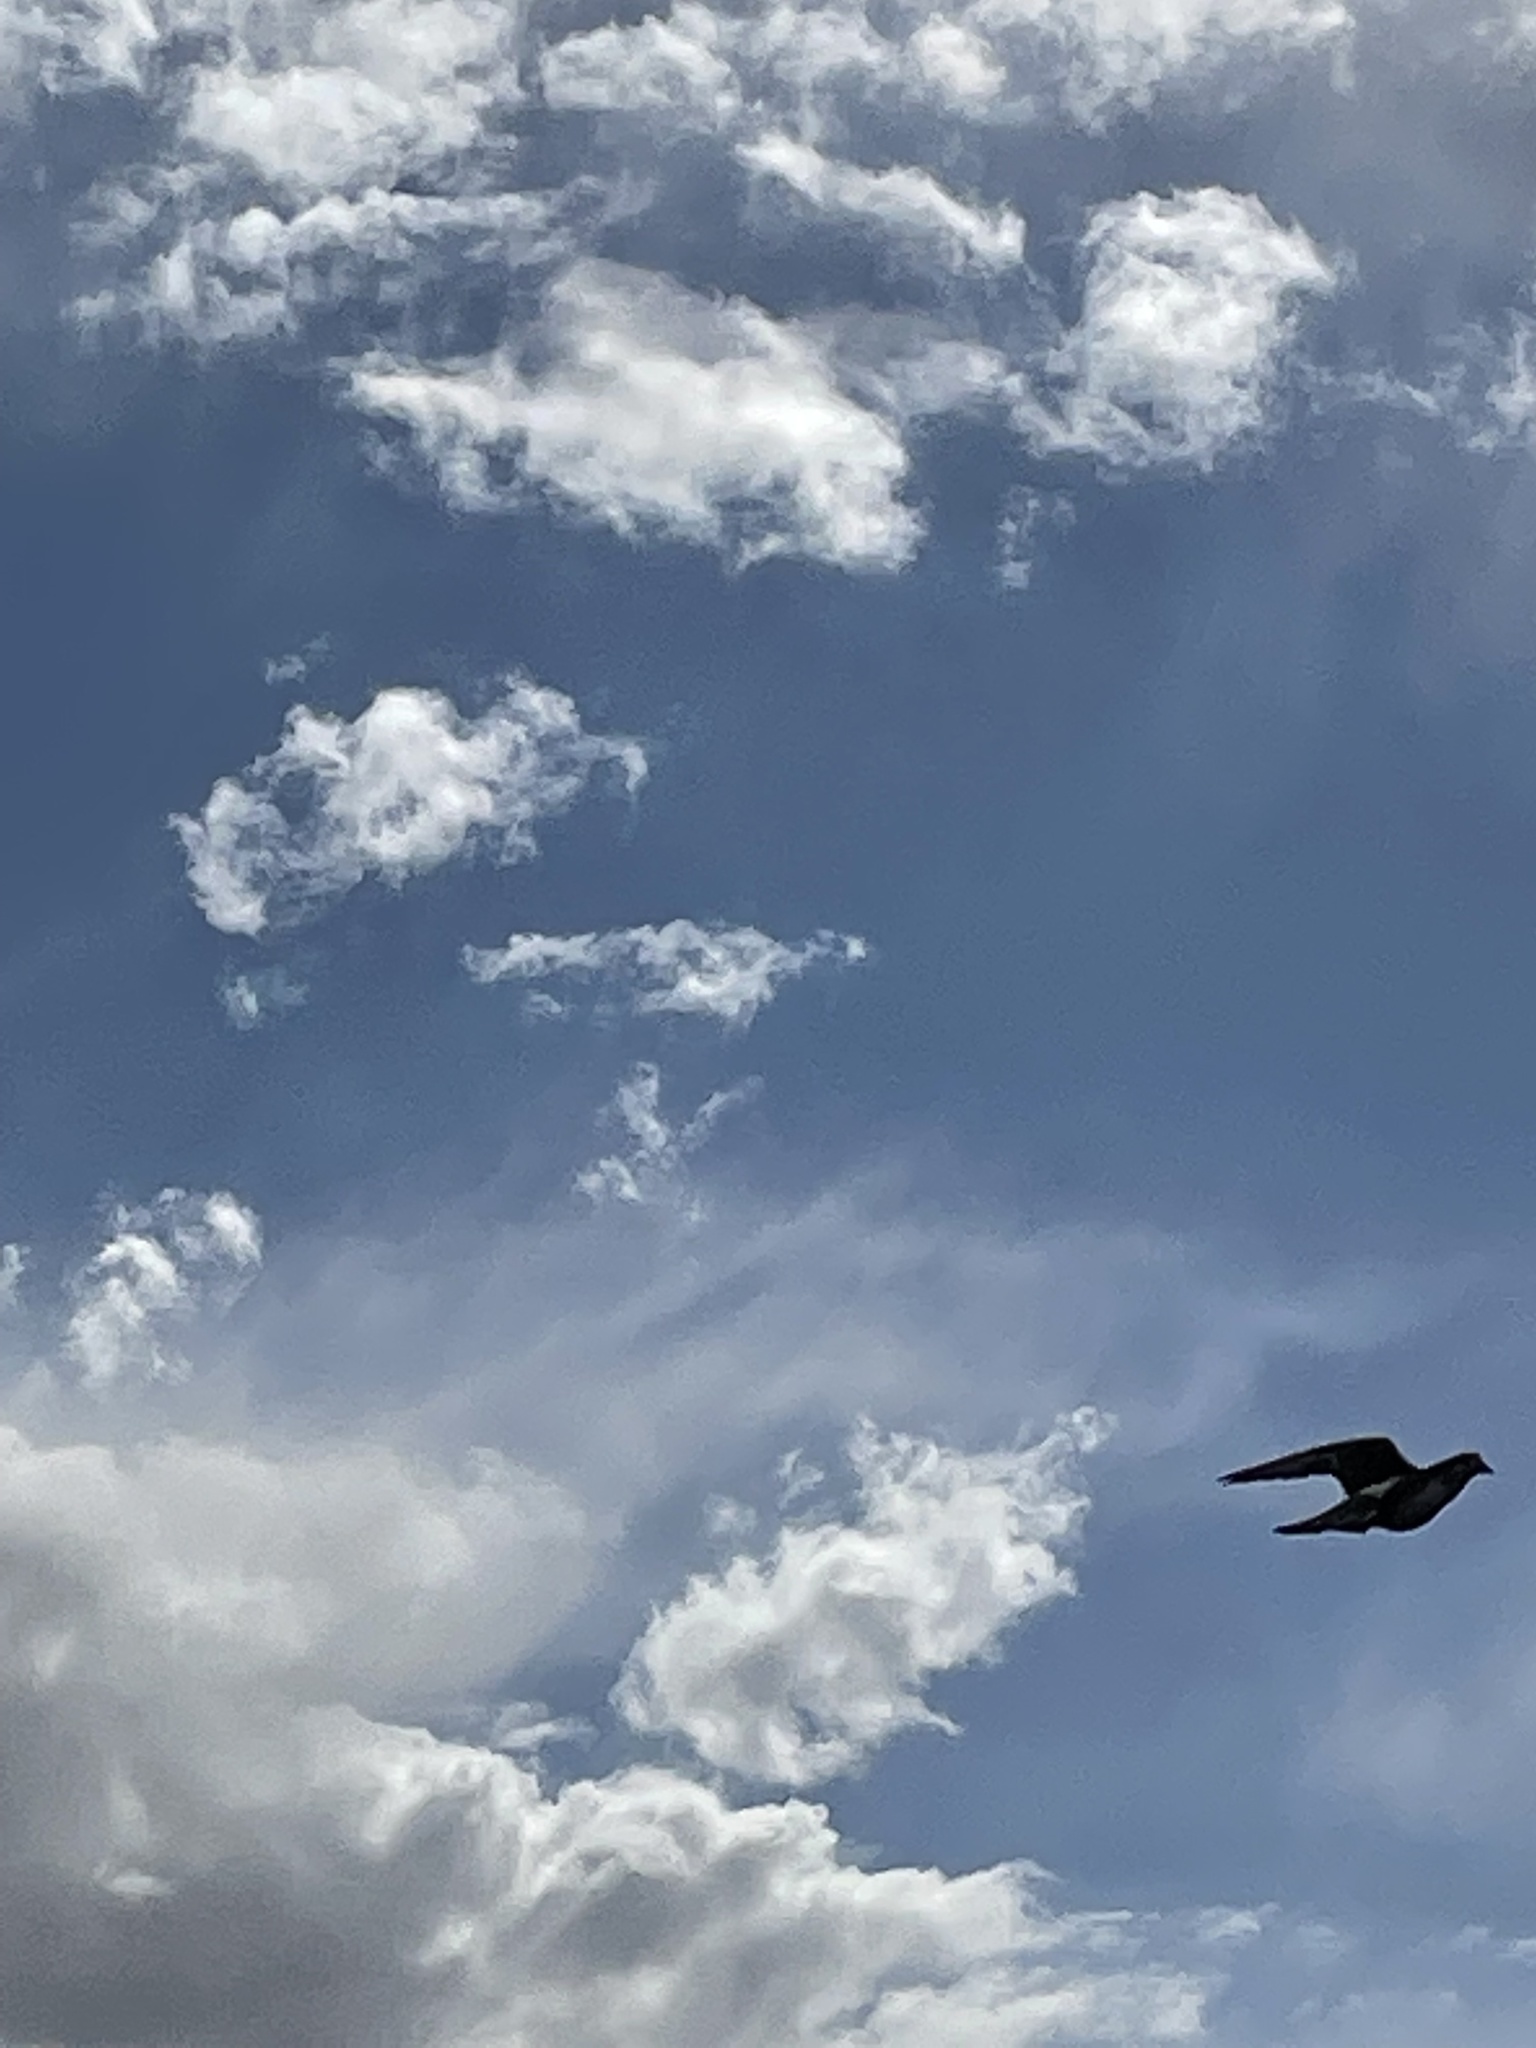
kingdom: Animalia
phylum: Chordata
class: Aves
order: Columbiformes
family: Columbidae
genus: Columba
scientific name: Columba livia
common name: Rock pigeon
